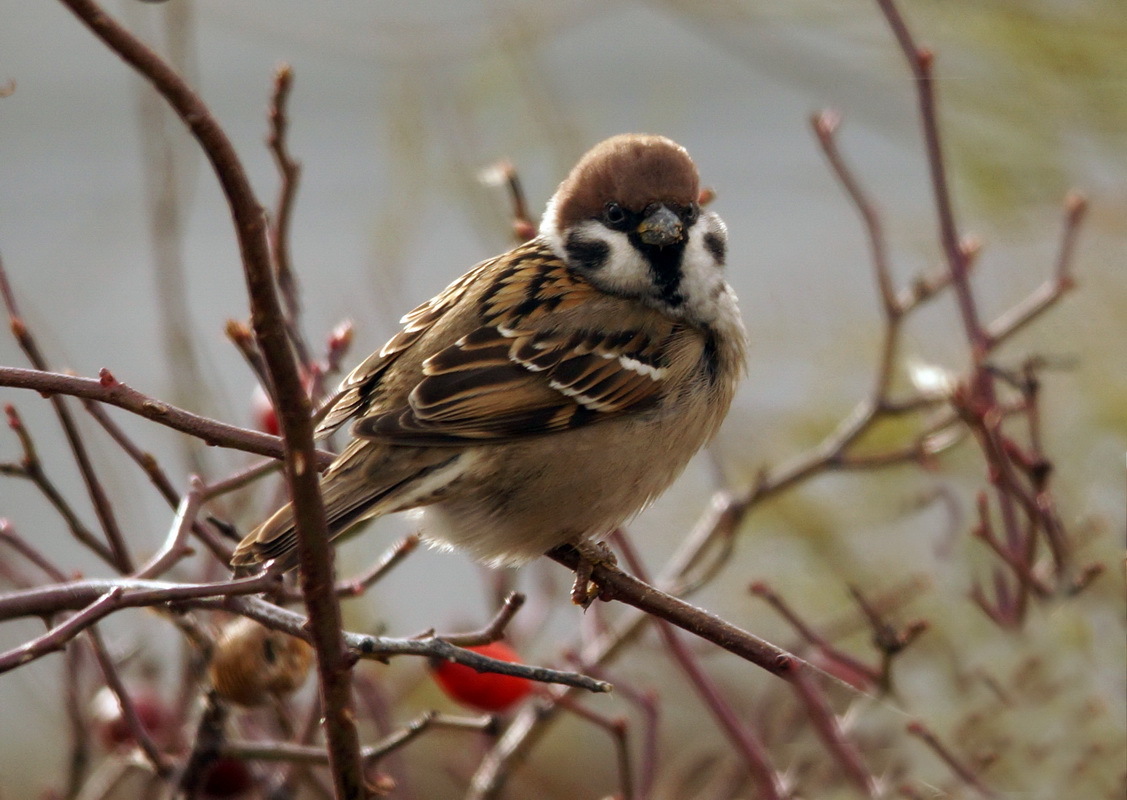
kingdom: Animalia
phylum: Chordata
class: Aves
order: Passeriformes
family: Passeridae
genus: Passer
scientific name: Passer montanus
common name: Eurasian tree sparrow
